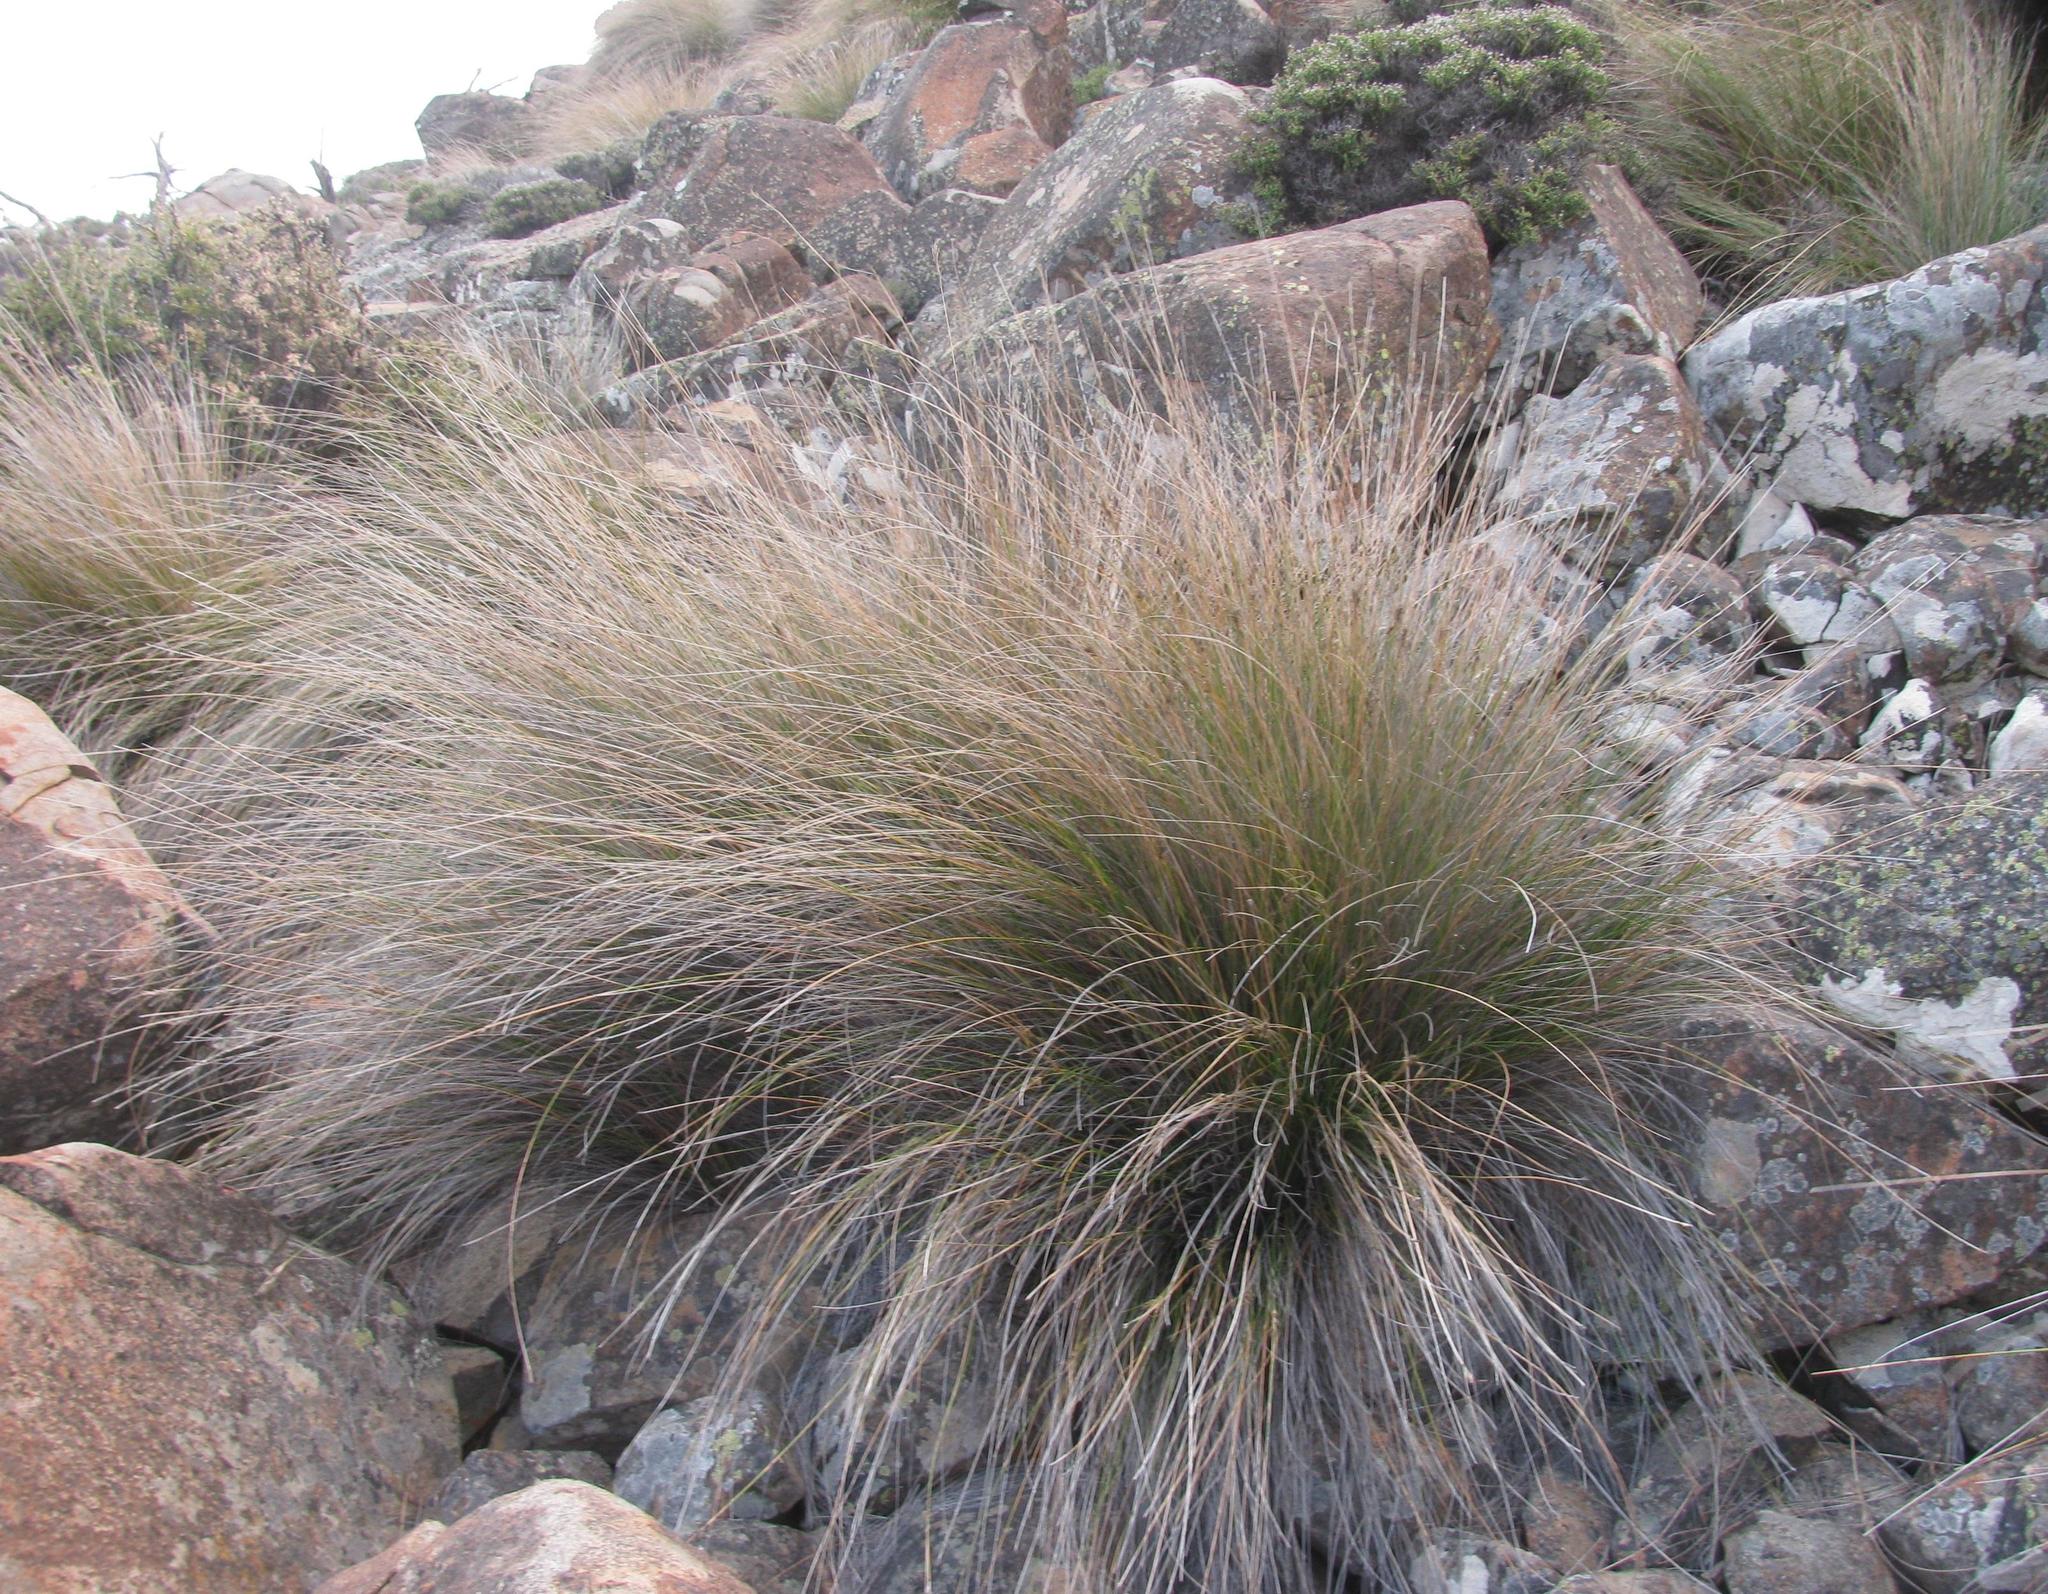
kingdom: Plantae
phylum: Tracheophyta
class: Liliopsida
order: Poales
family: Cyperaceae
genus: Ficinia
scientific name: Ficinia compasbergensis
